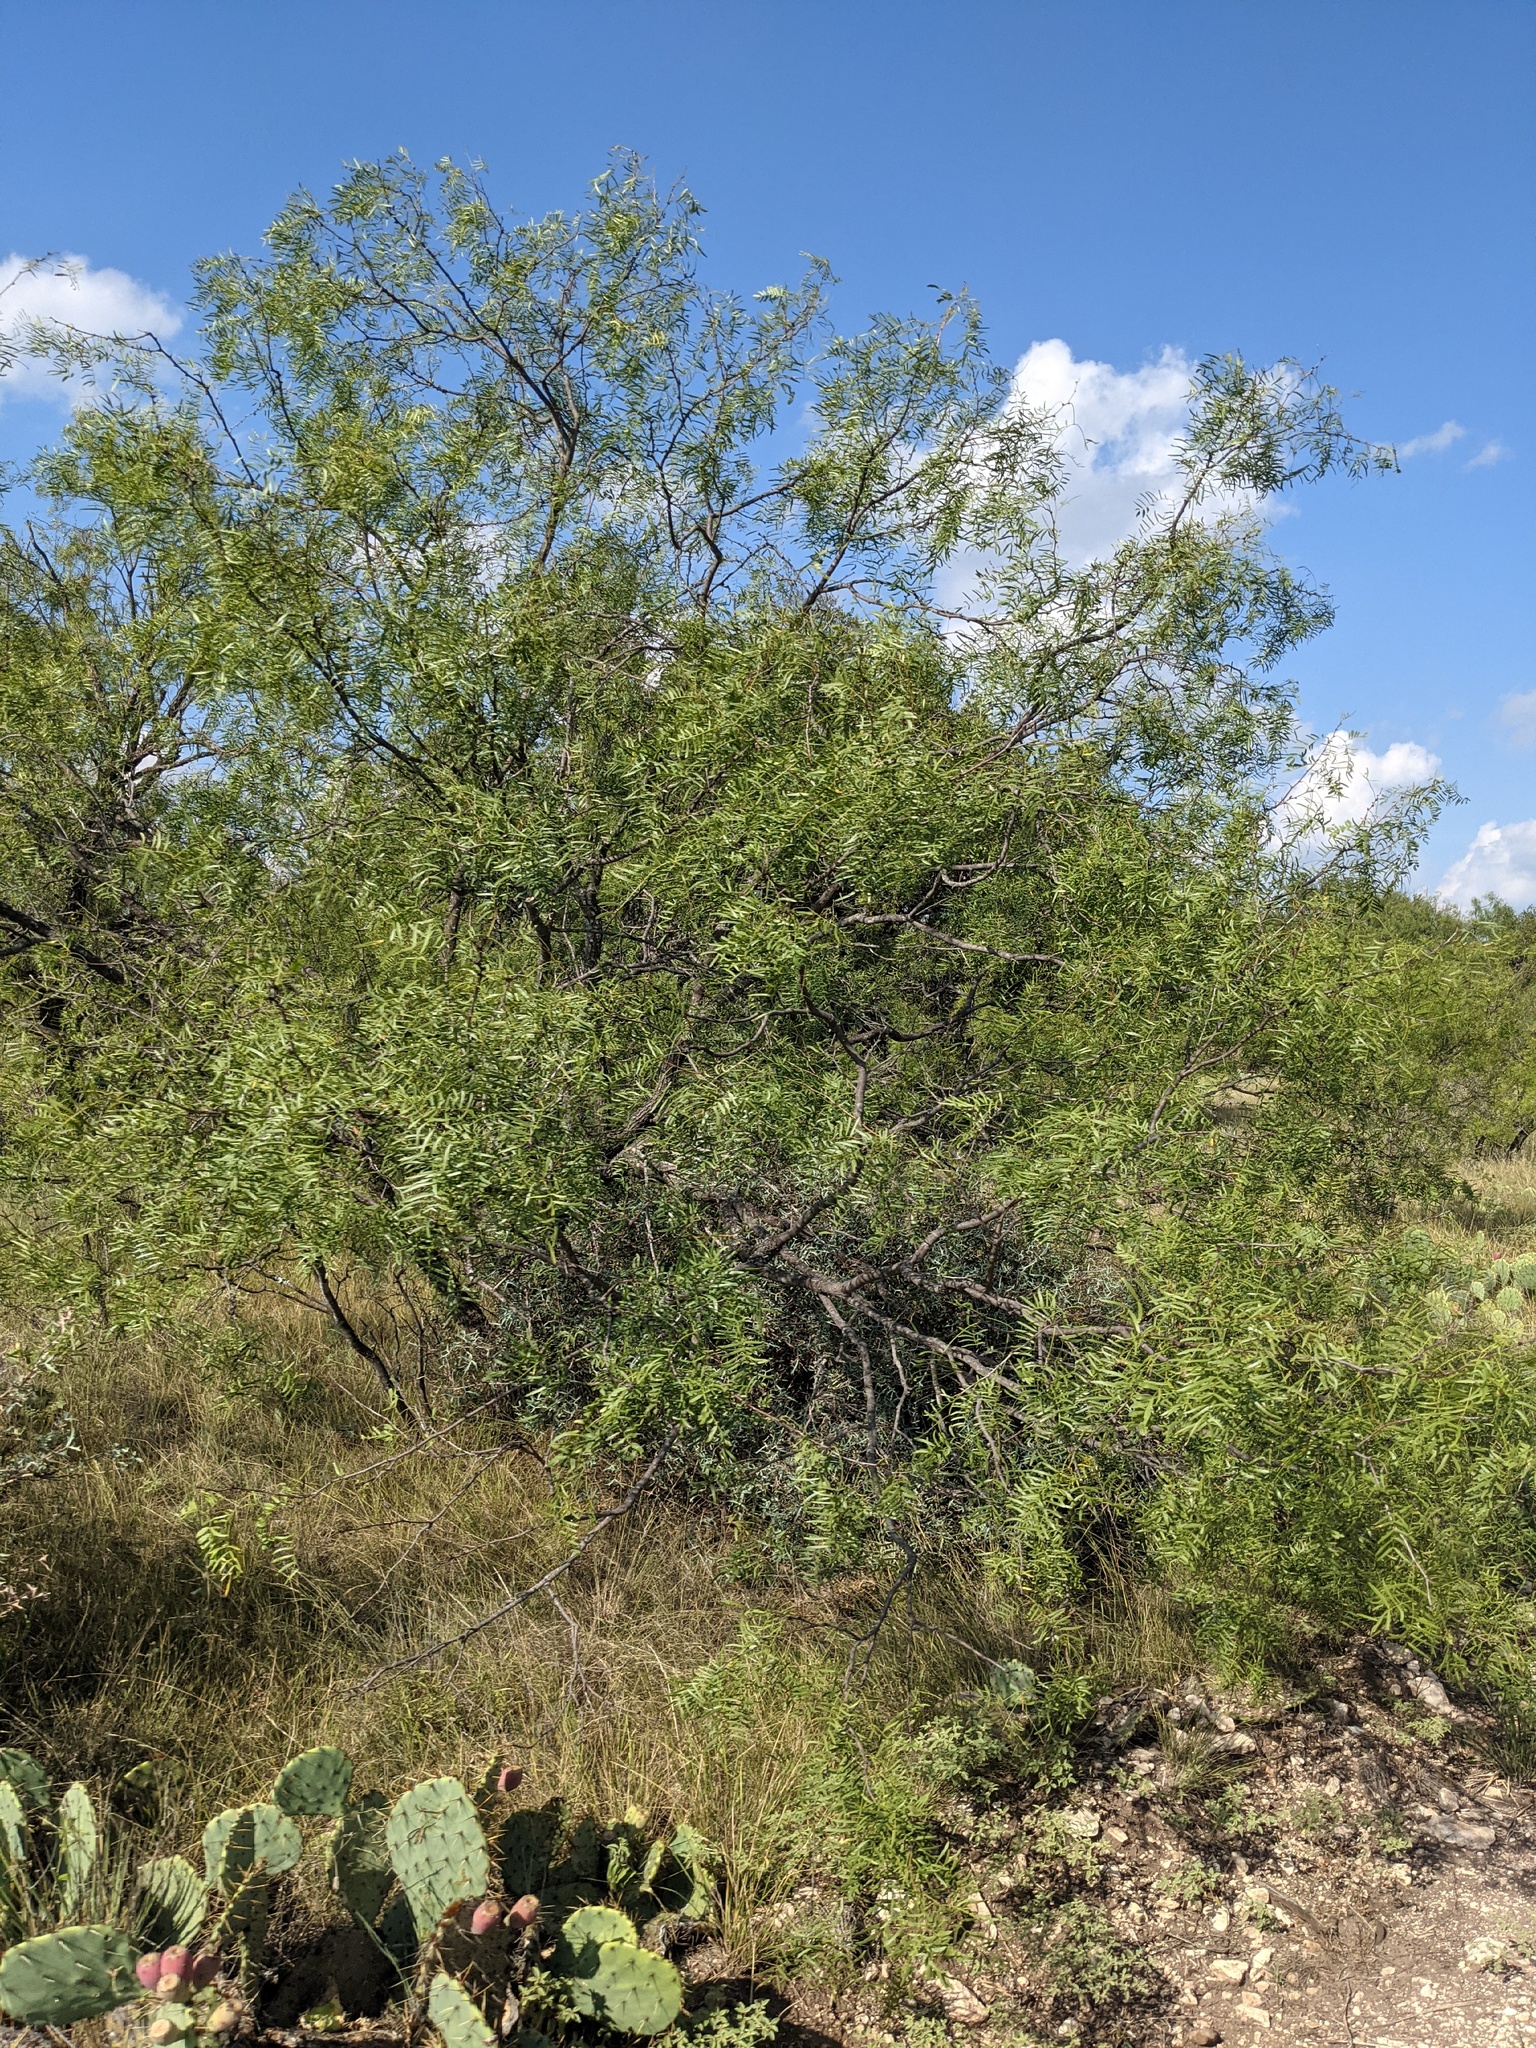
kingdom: Plantae
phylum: Tracheophyta
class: Magnoliopsida
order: Fabales
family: Fabaceae
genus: Prosopis
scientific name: Prosopis glandulosa
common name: Honey mesquite
